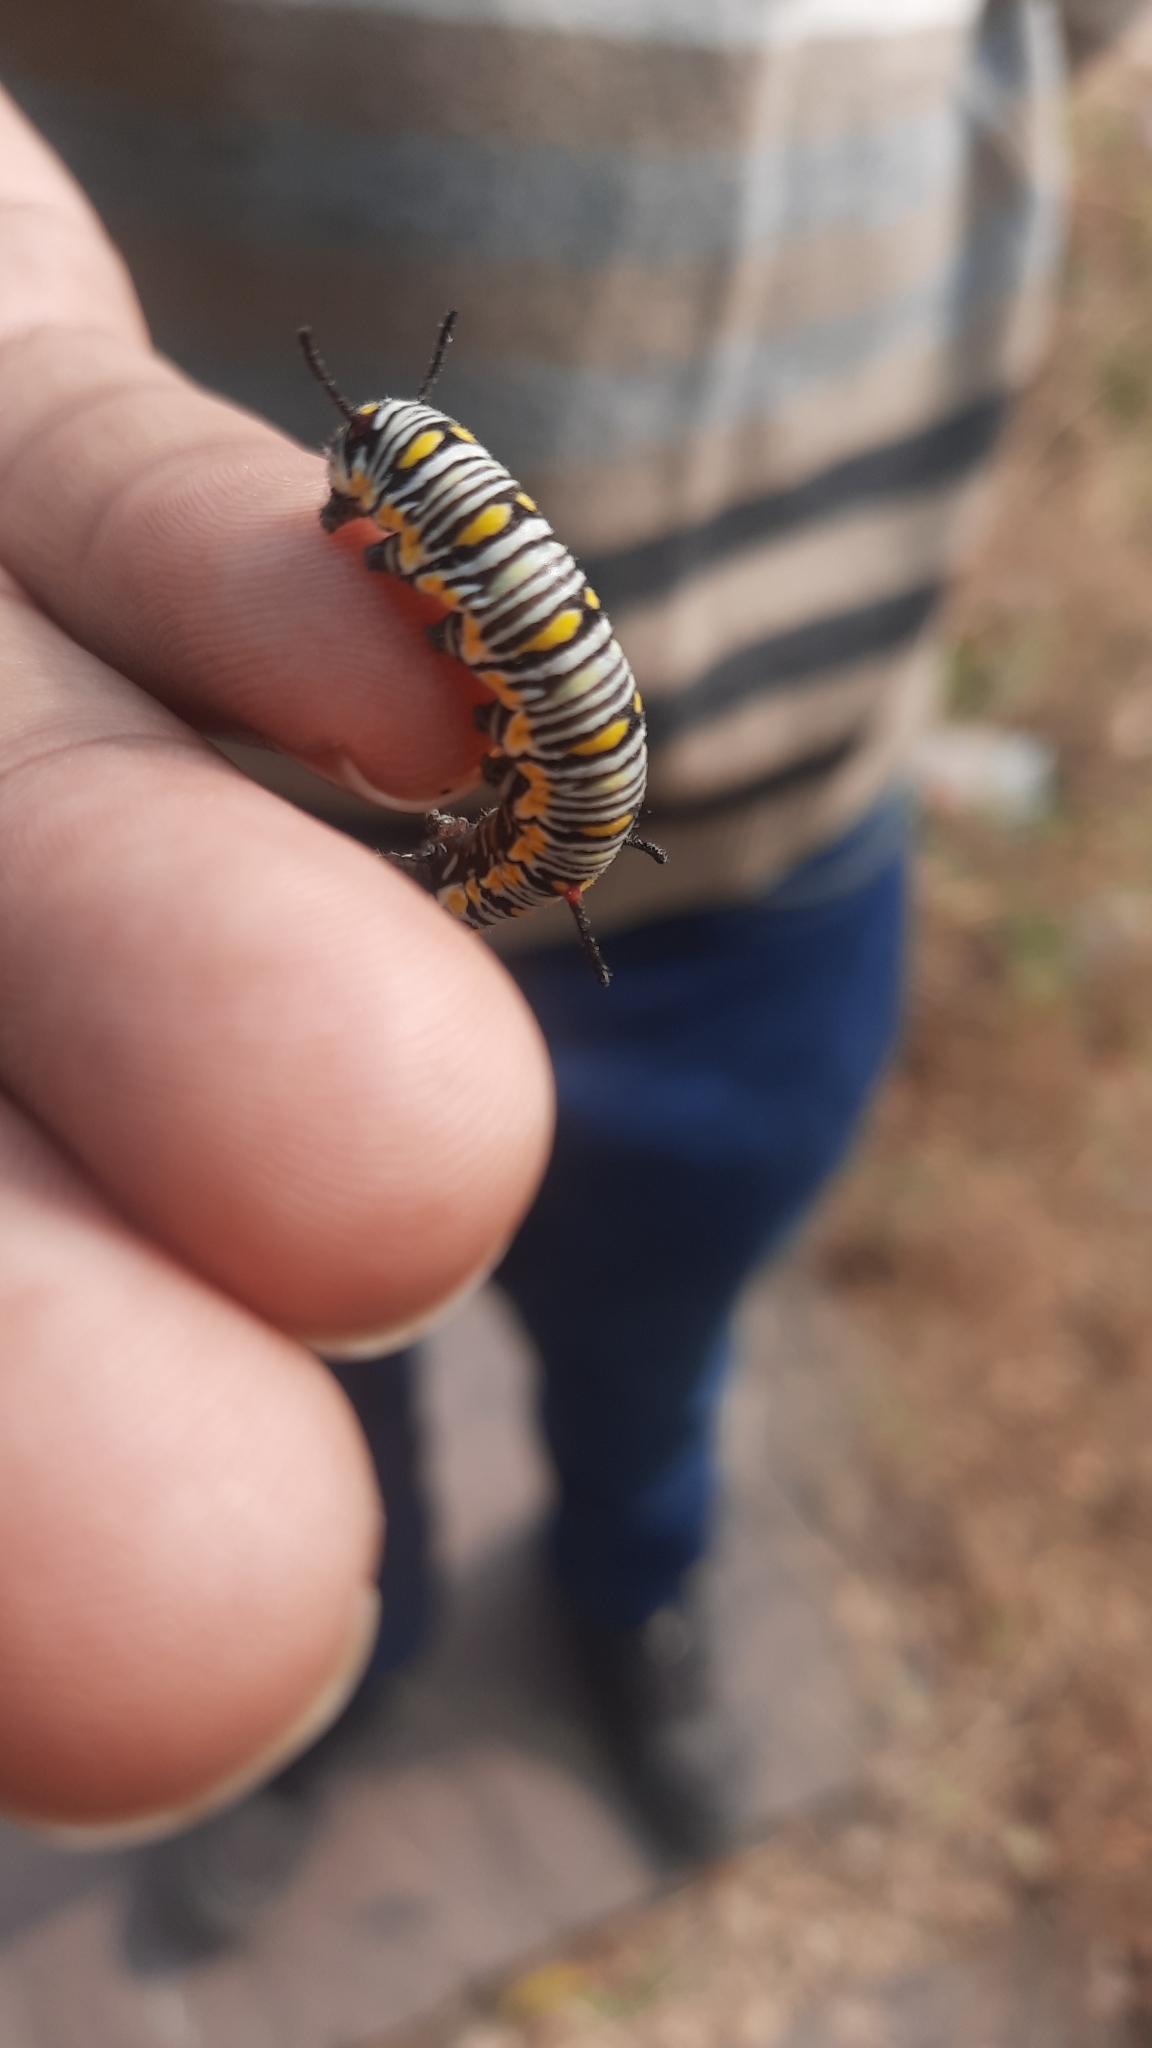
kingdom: Animalia
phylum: Arthropoda
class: Insecta
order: Lepidoptera
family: Nymphalidae
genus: Danaus
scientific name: Danaus chrysippus
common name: Plain tiger
